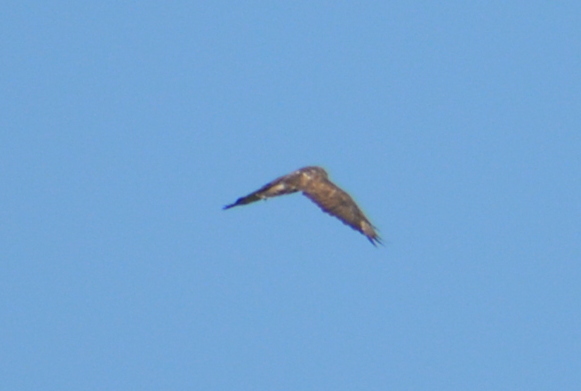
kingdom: Animalia
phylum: Chordata
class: Aves
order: Accipitriformes
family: Accipitridae
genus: Buteo
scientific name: Buteo buteo
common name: Common buzzard
